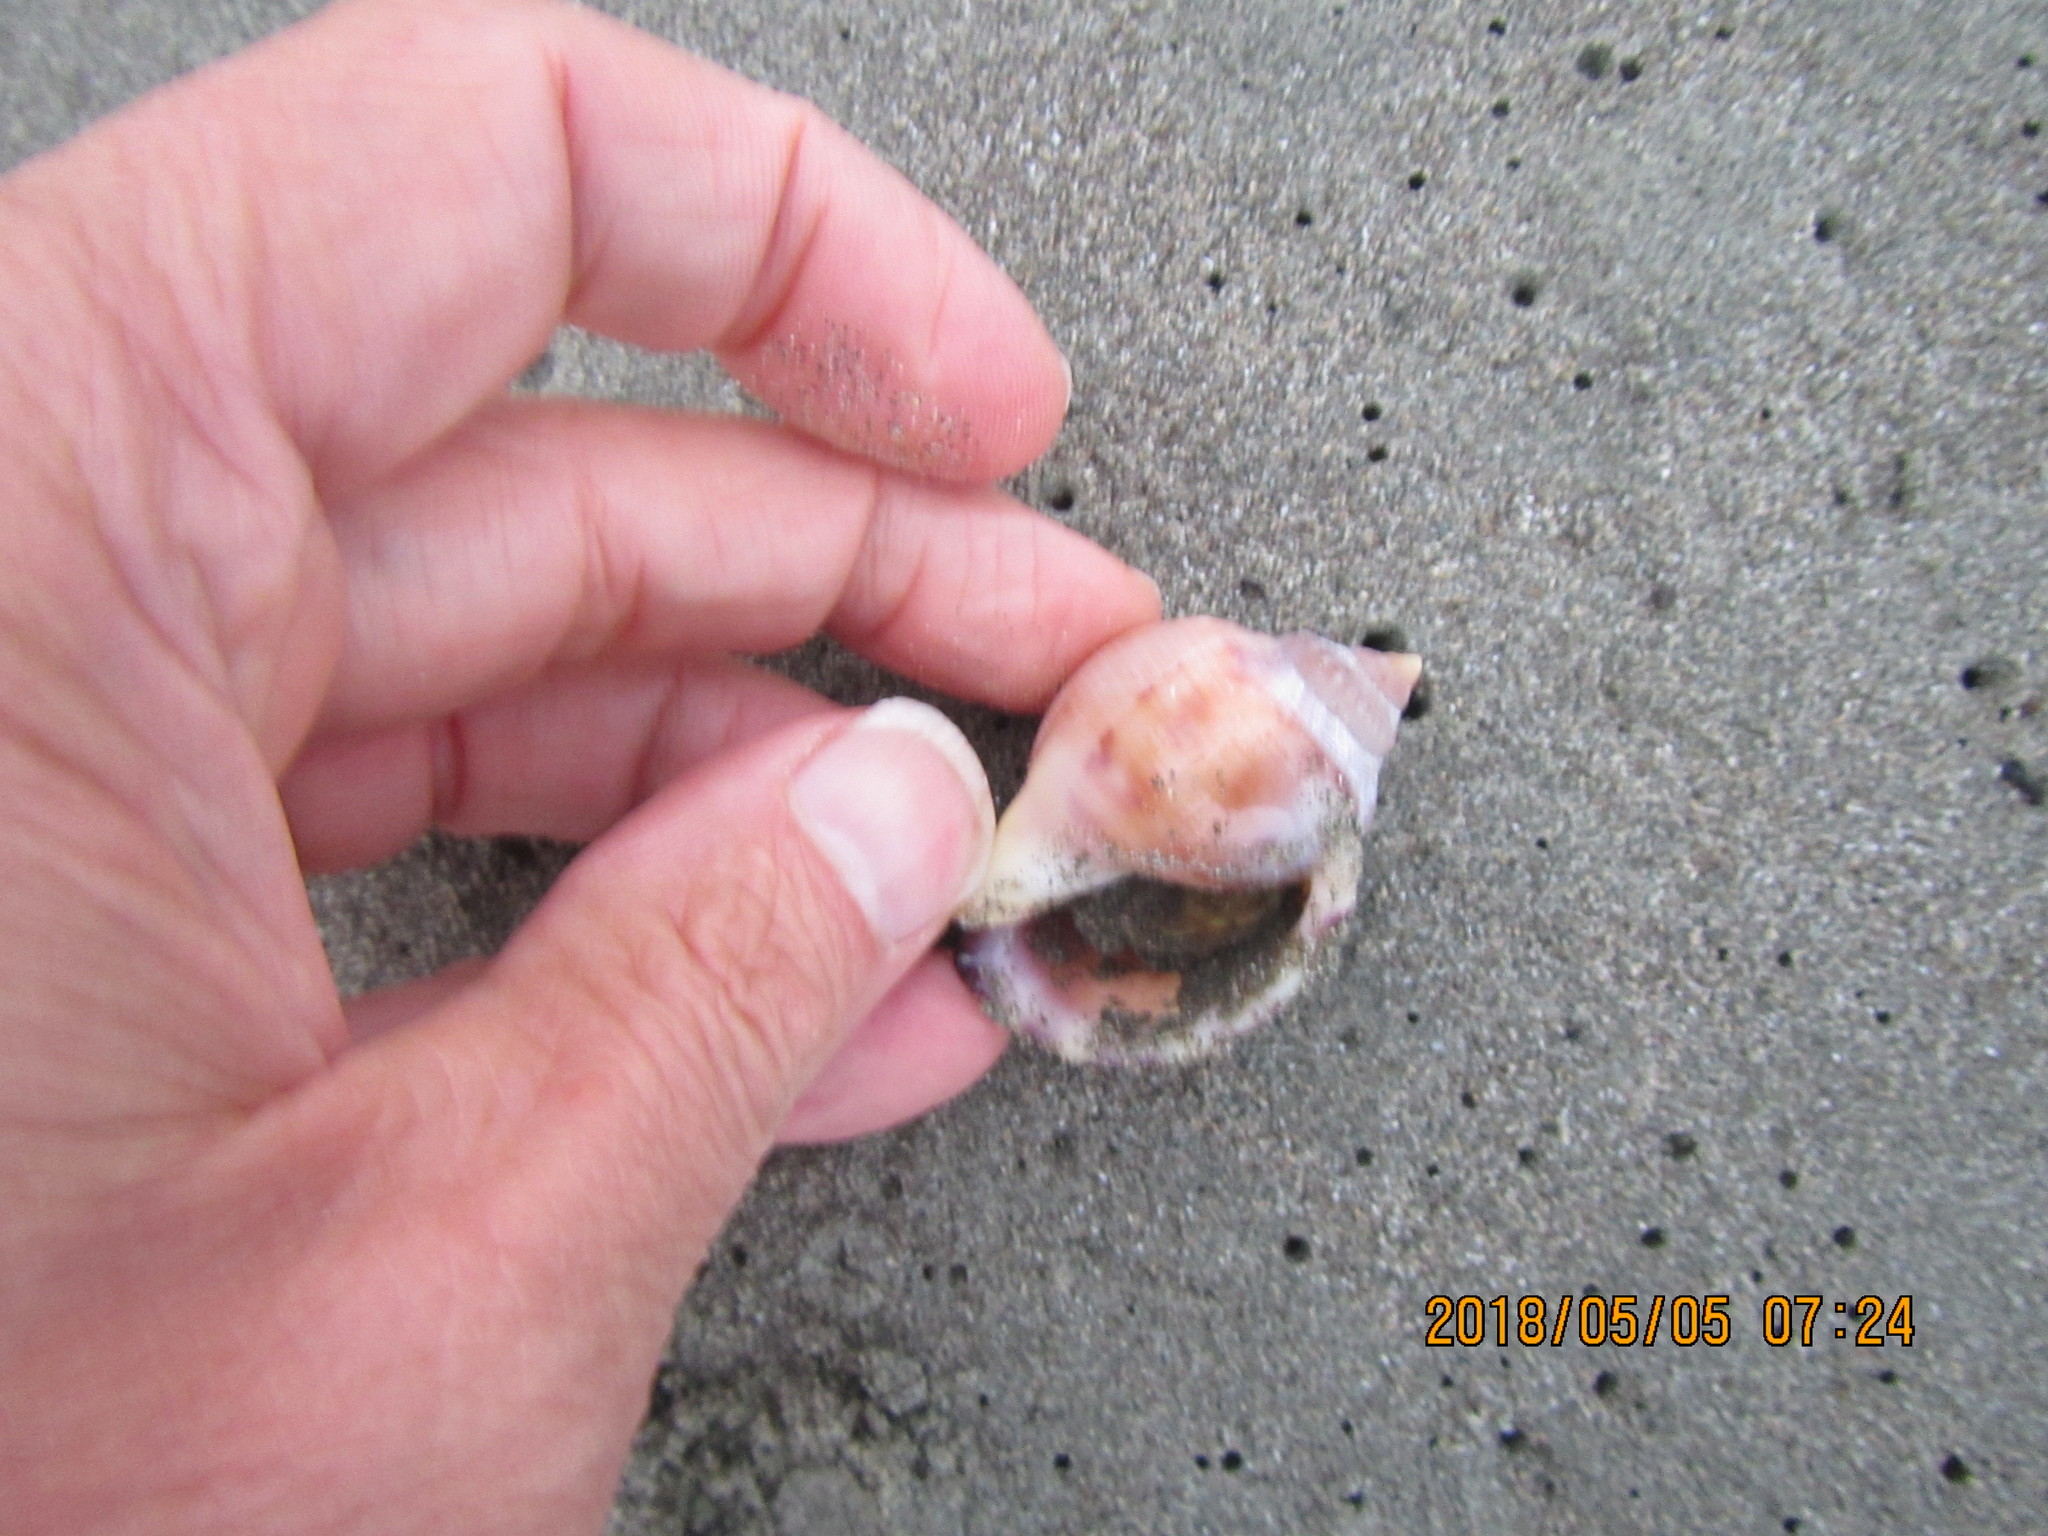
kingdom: Animalia
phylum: Mollusca
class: Gastropoda
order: Littorinimorpha
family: Cassidae
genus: Semicassis
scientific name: Semicassis pyrum
